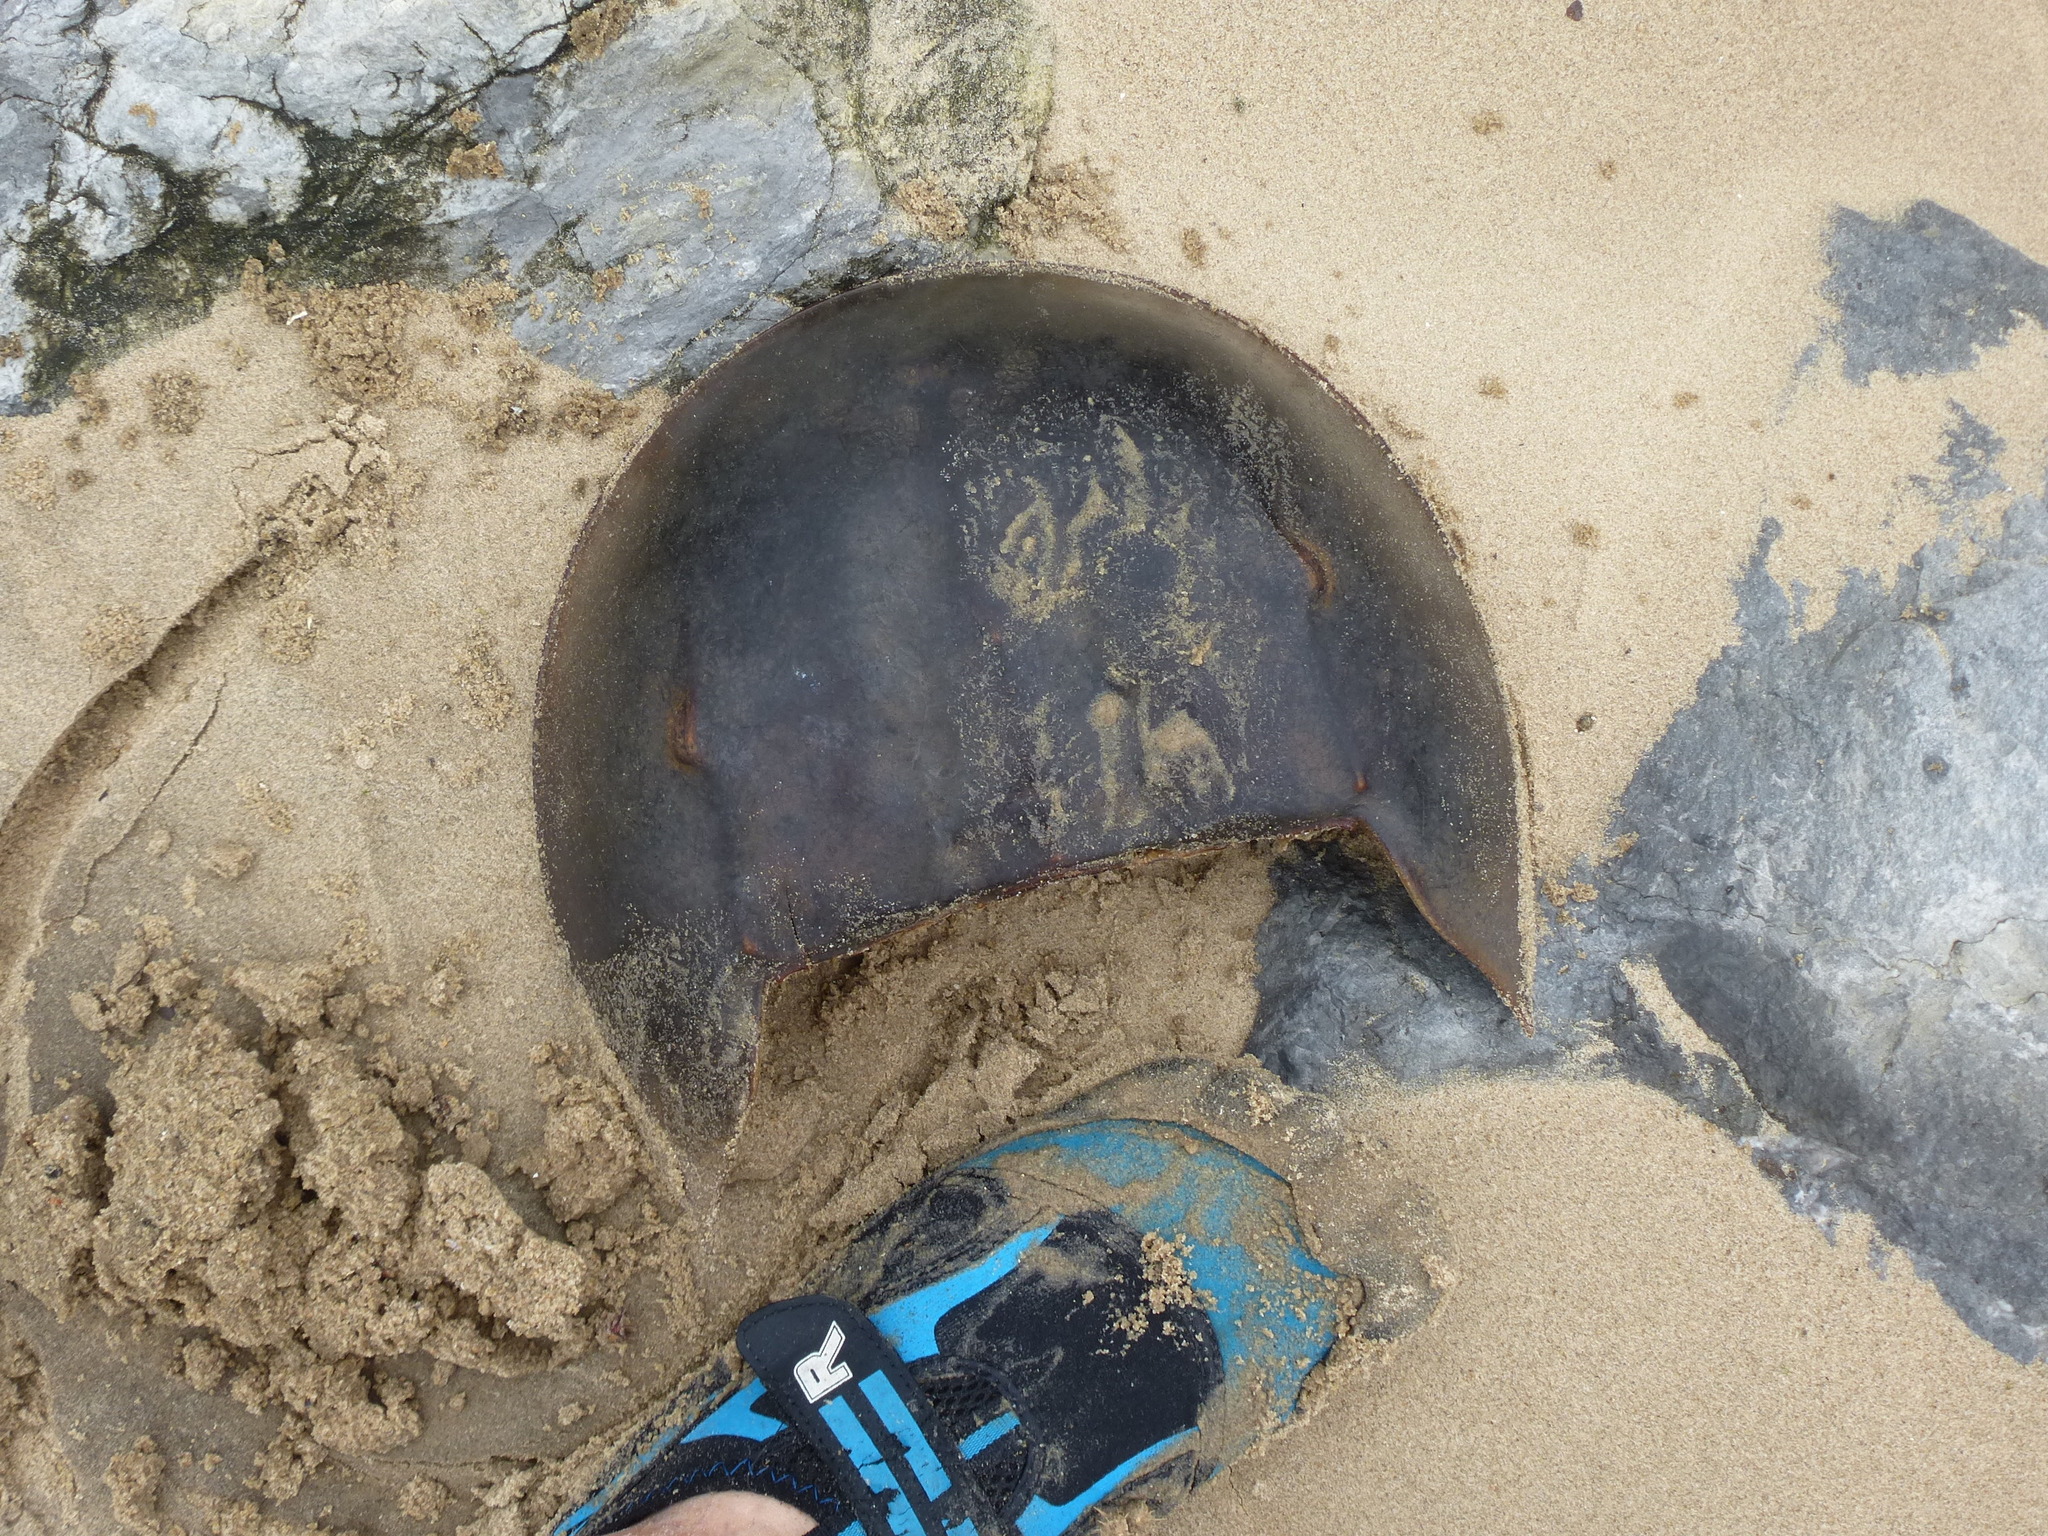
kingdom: Animalia
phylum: Arthropoda
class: Merostomata
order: Xiphosurida
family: Limulidae
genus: Limulus
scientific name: Limulus polyphemus
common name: Horseshoe crab
